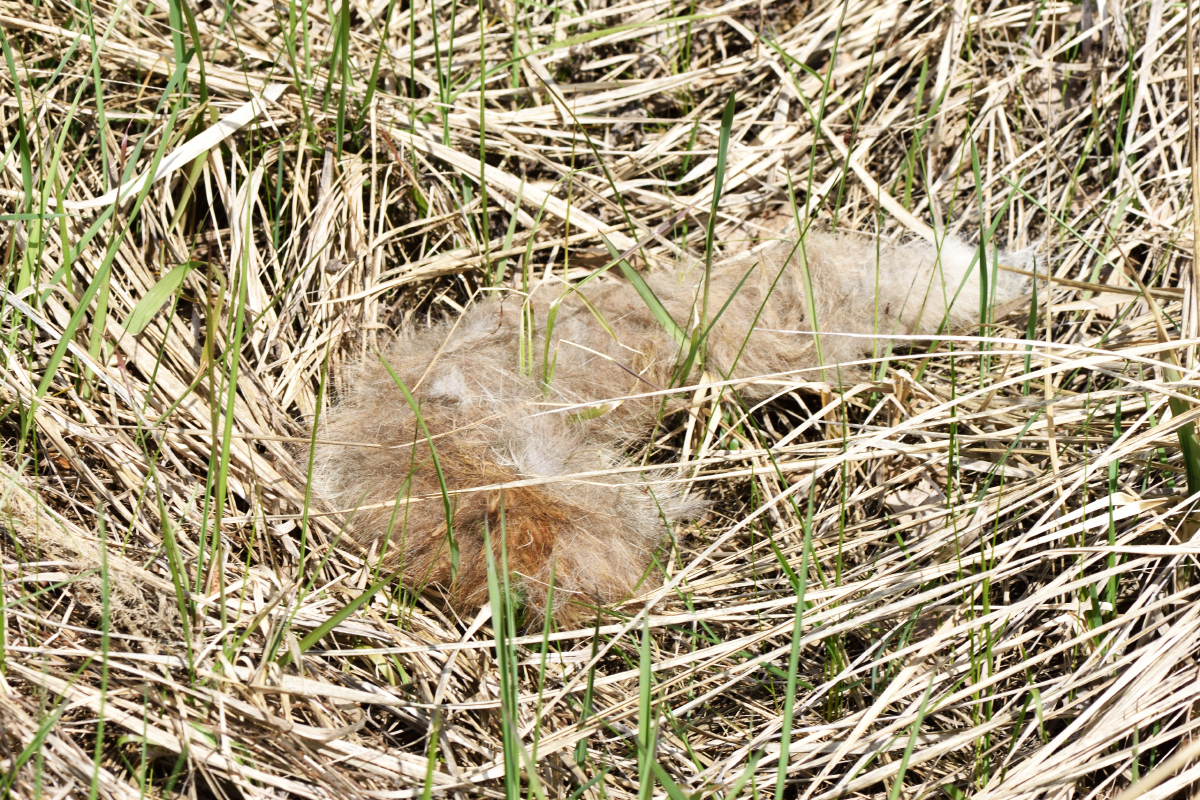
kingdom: Animalia
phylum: Chordata
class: Mammalia
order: Carnivora
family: Canidae
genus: Vulpes
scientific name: Vulpes vulpes
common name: Red fox
